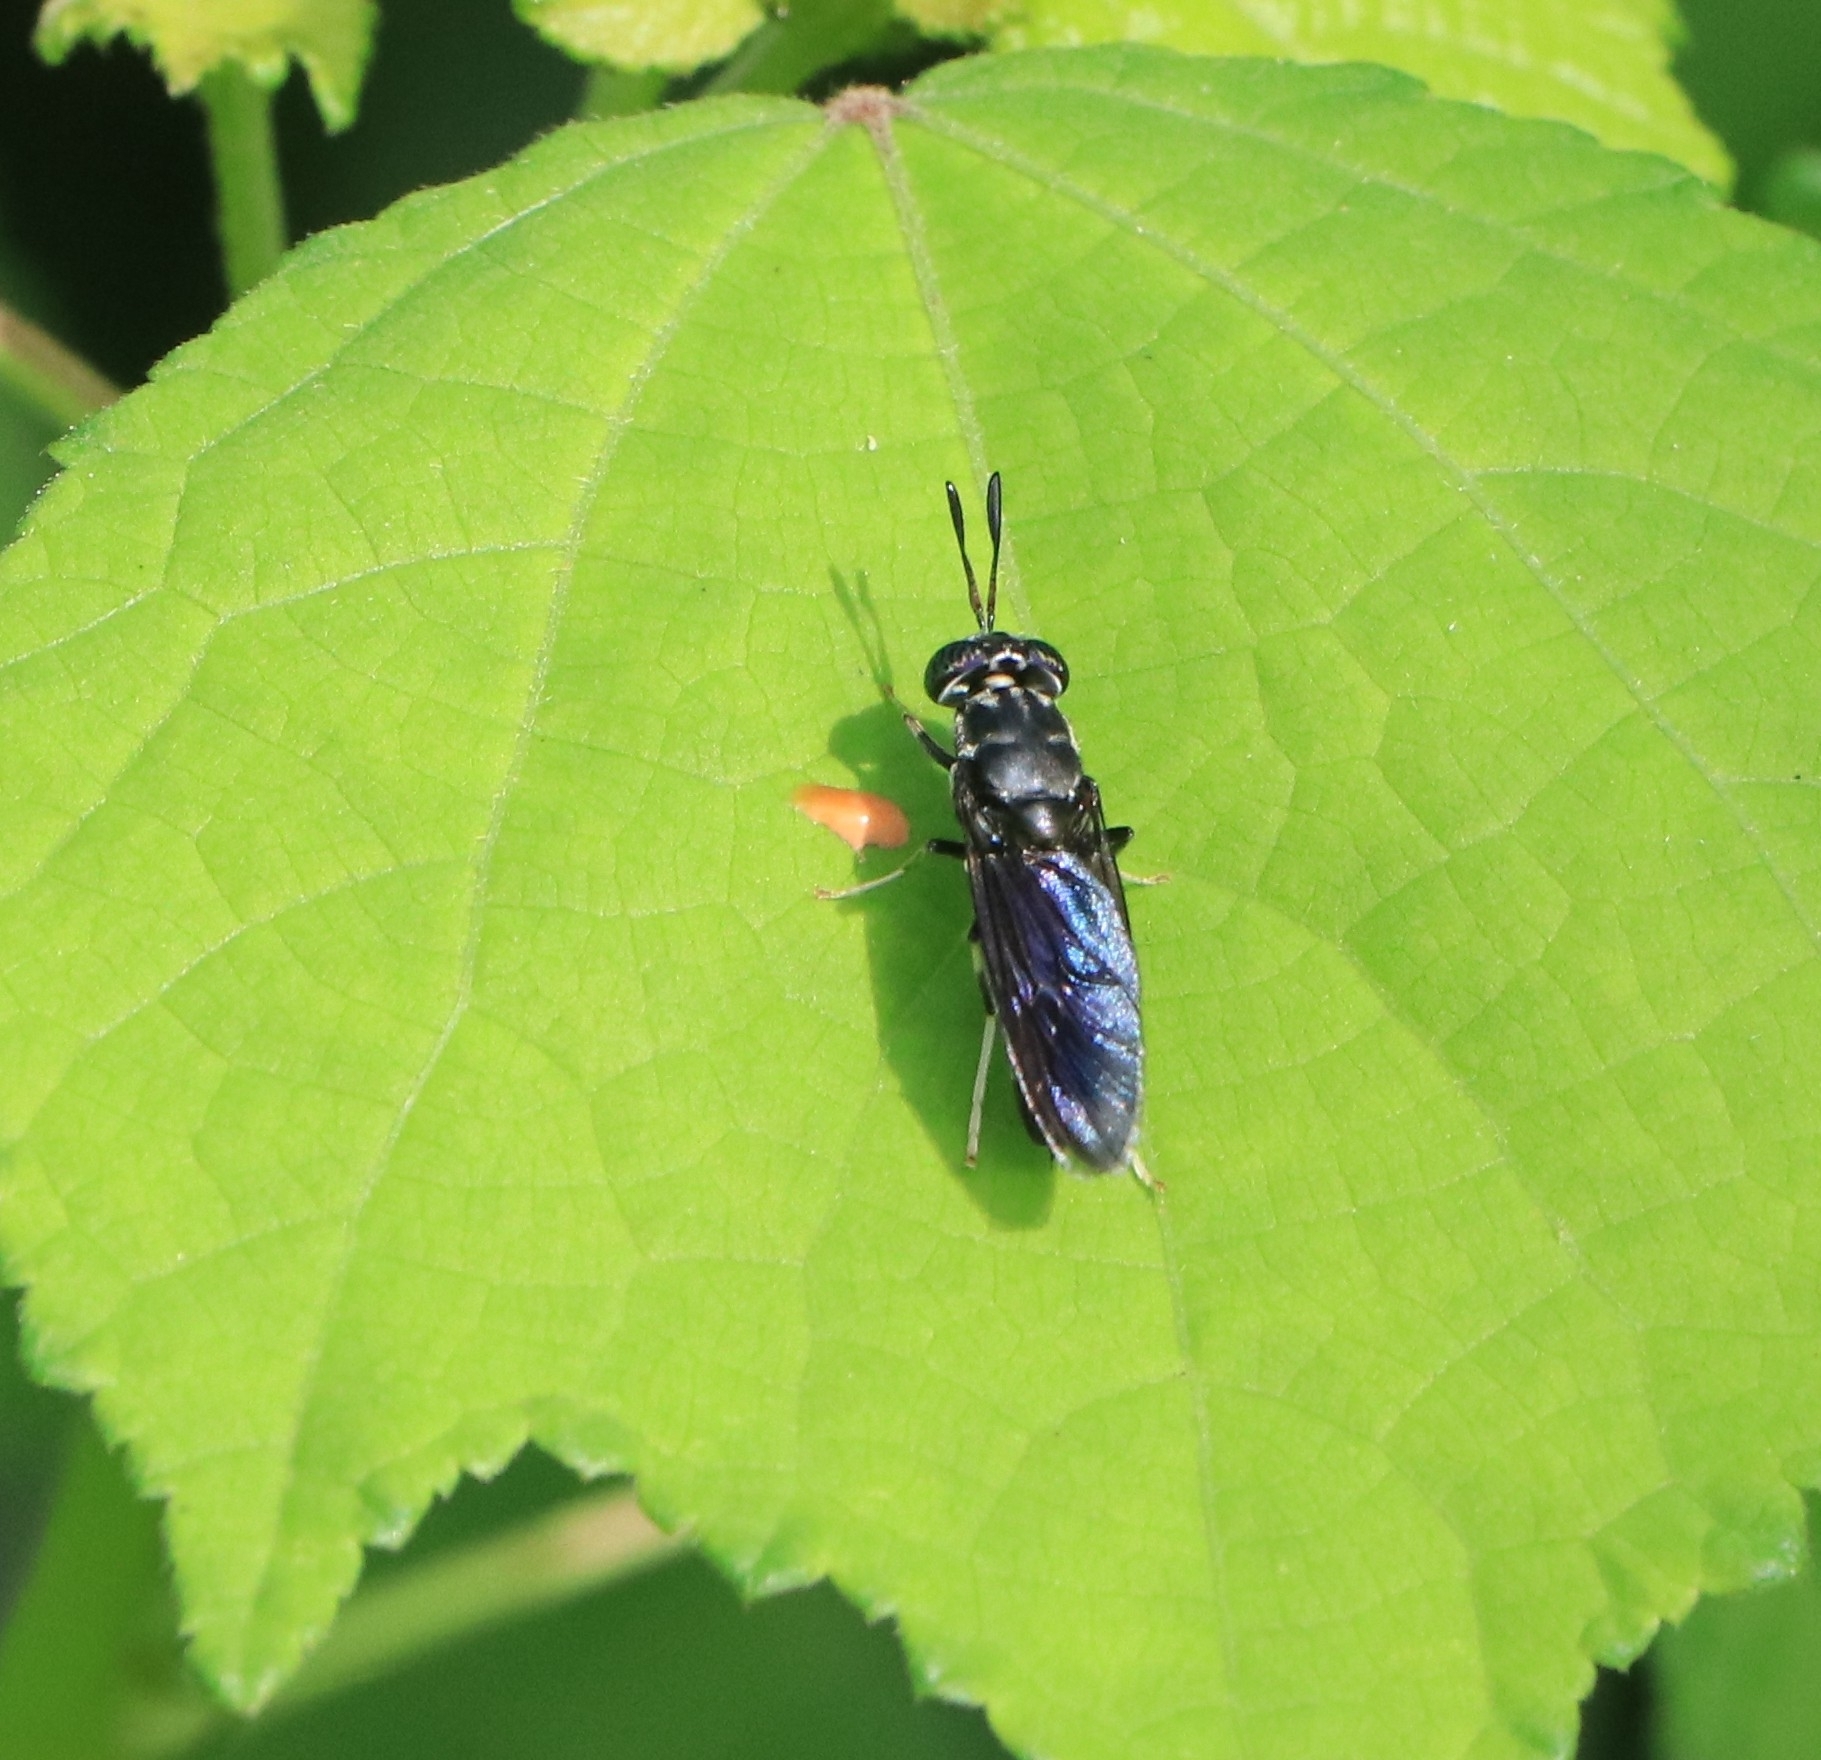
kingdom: Animalia
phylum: Arthropoda
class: Insecta
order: Diptera
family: Stratiomyidae
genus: Hermetia
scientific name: Hermetia illucens
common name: Black soldier fly
